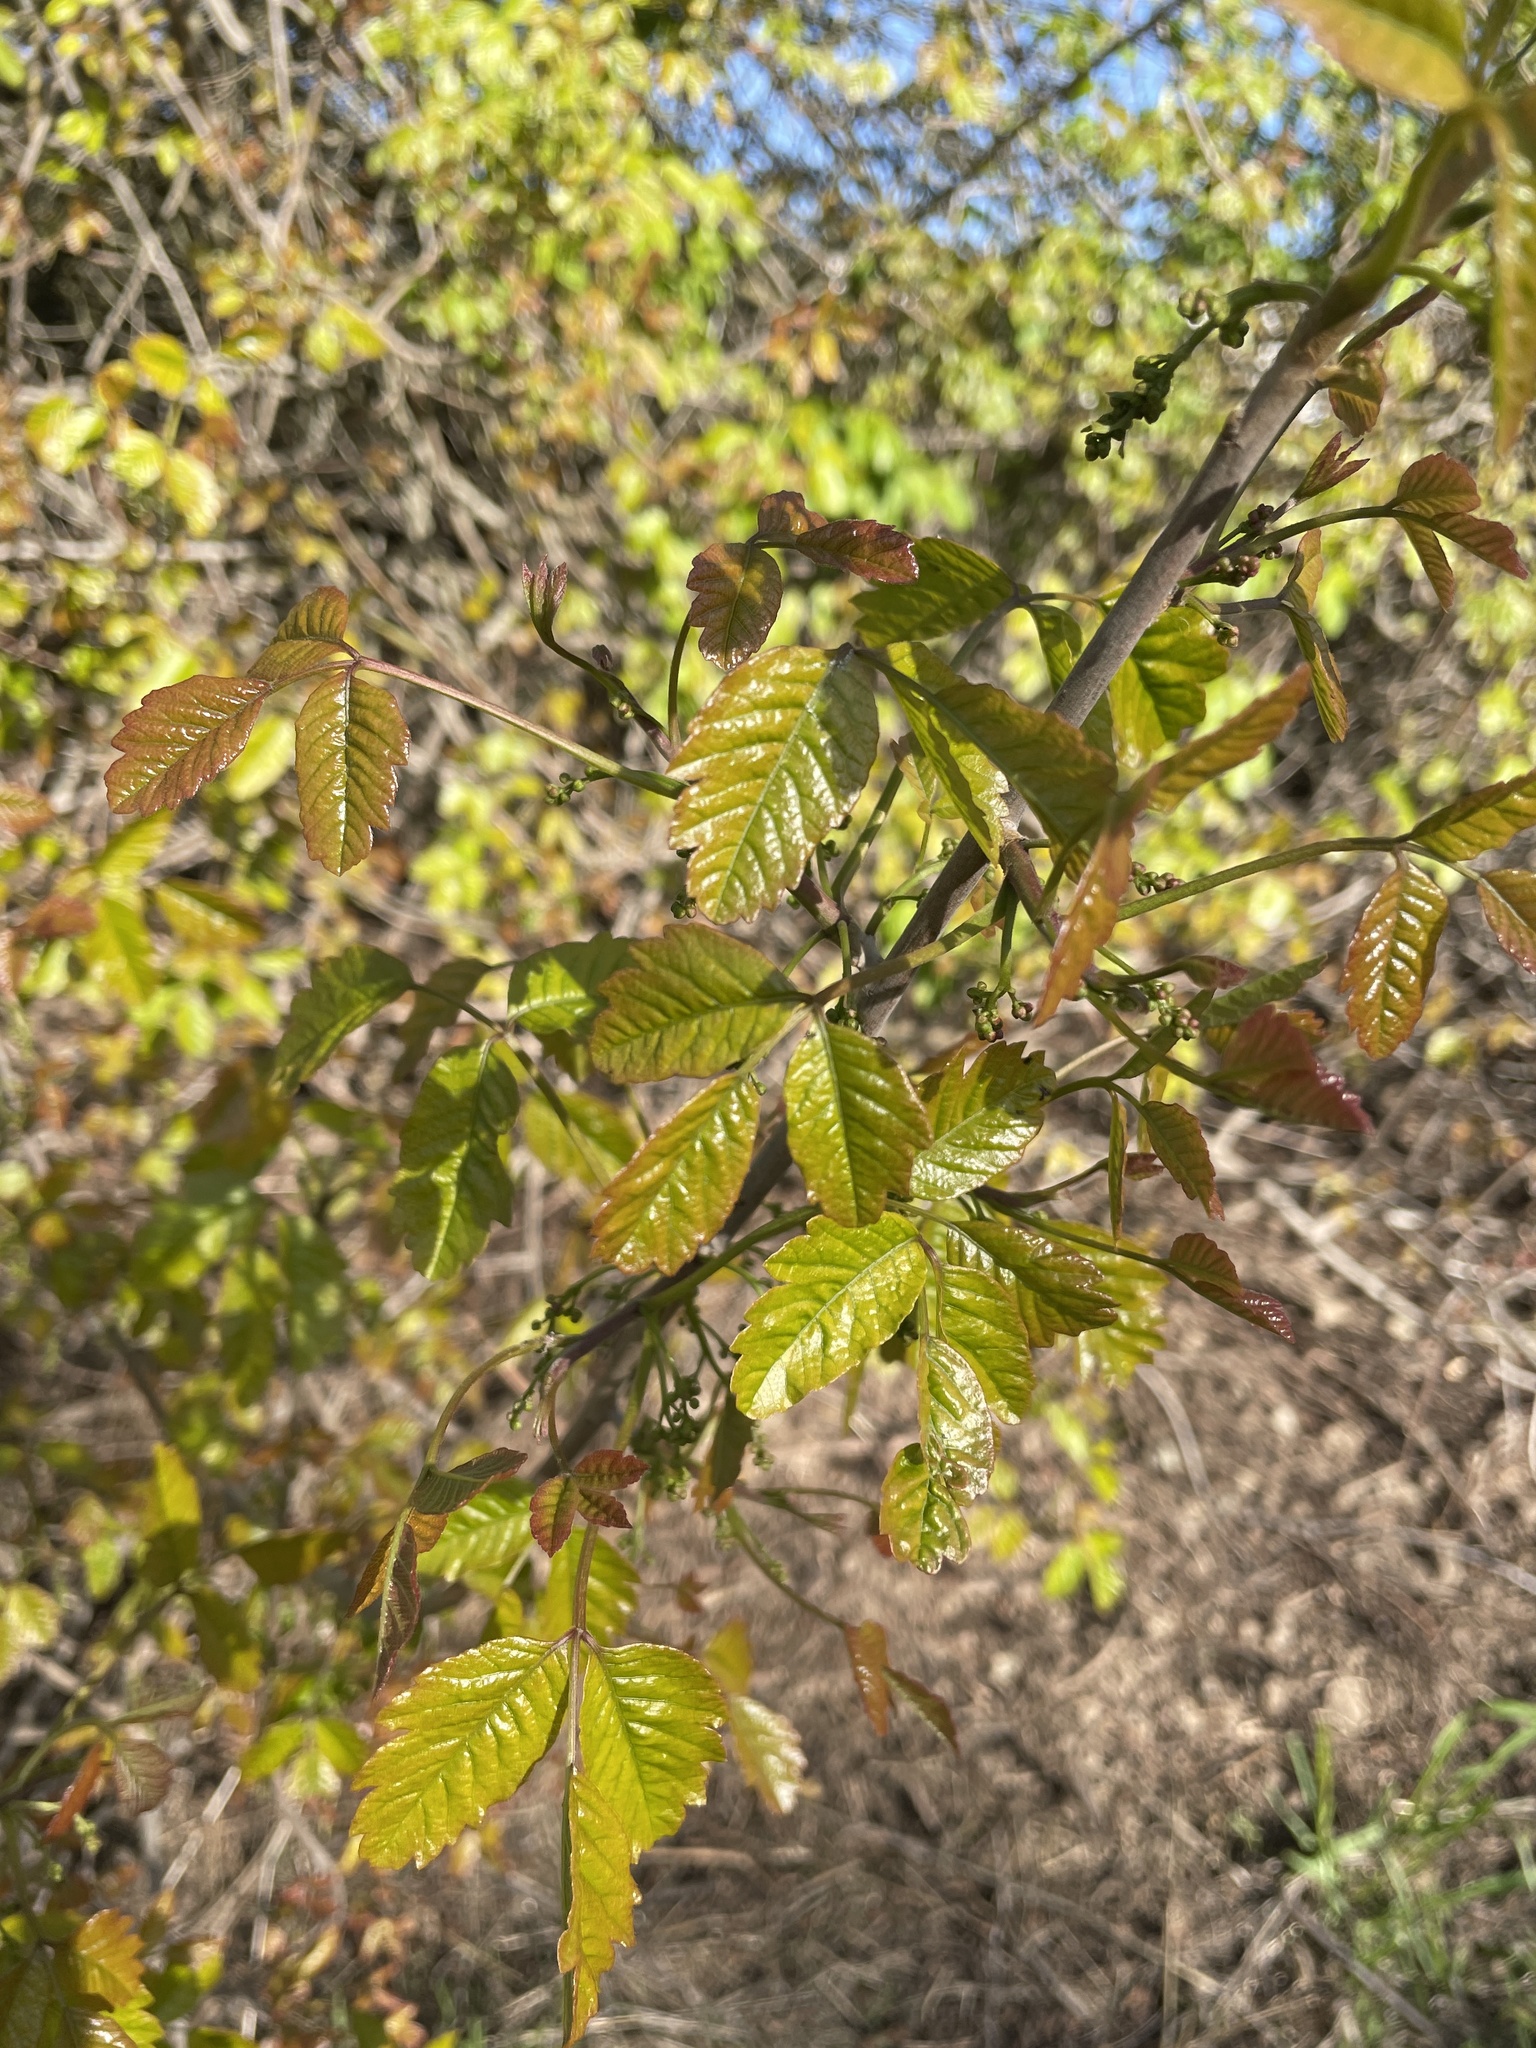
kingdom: Plantae
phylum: Tracheophyta
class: Magnoliopsida
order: Sapindales
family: Anacardiaceae
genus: Toxicodendron
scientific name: Toxicodendron diversilobum
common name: Pacific poison-oak
